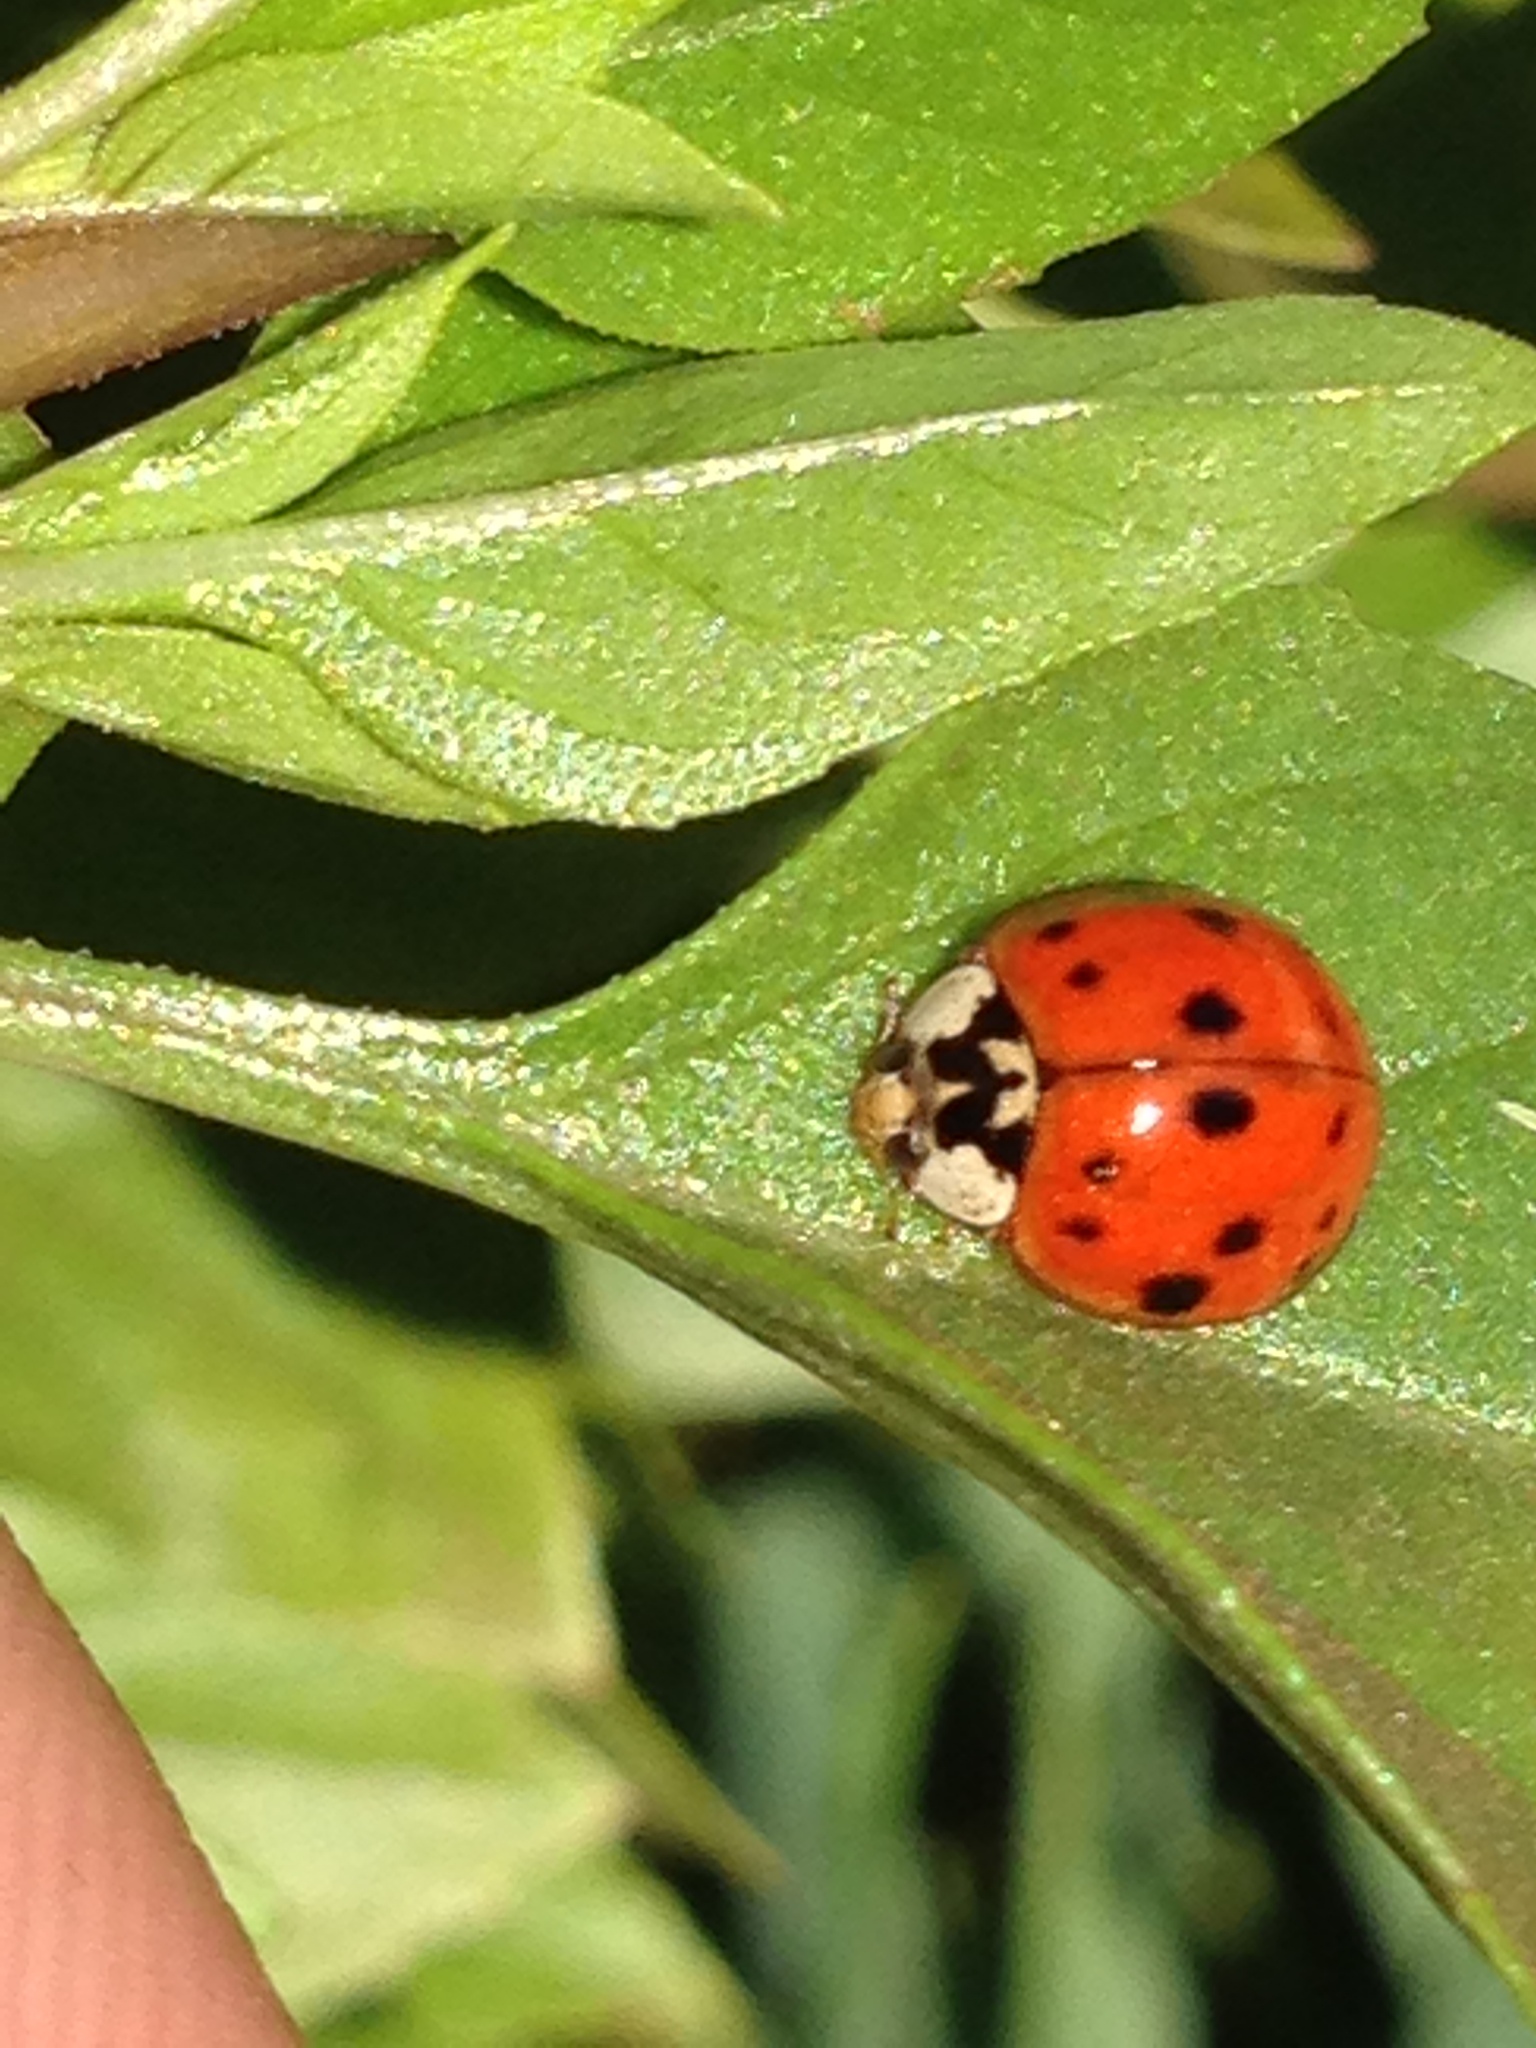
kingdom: Animalia
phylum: Arthropoda
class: Insecta
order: Coleoptera
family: Coccinellidae
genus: Harmonia
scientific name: Harmonia axyridis
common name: Harlequin ladybird
